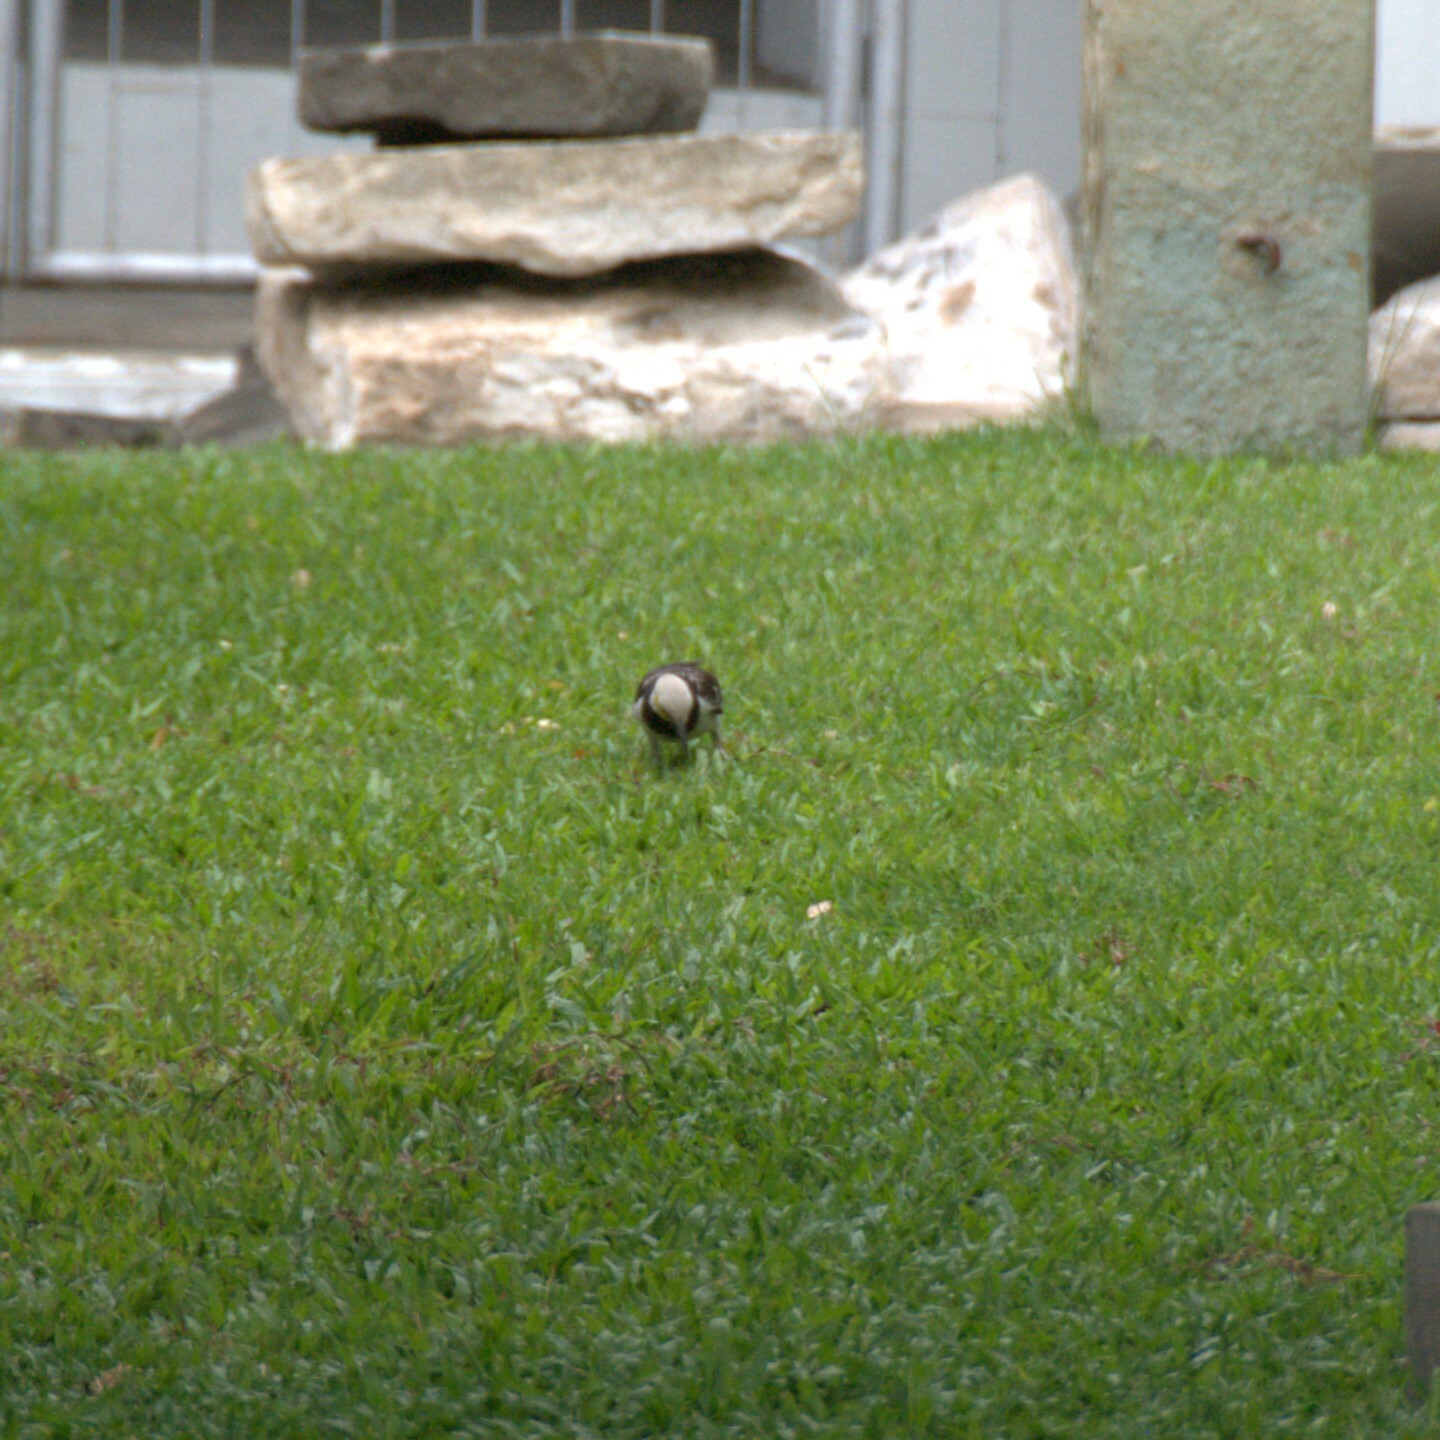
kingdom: Animalia
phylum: Chordata
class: Aves
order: Passeriformes
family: Sturnidae
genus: Gracupica
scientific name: Gracupica nigricollis
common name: Black-collared starling
